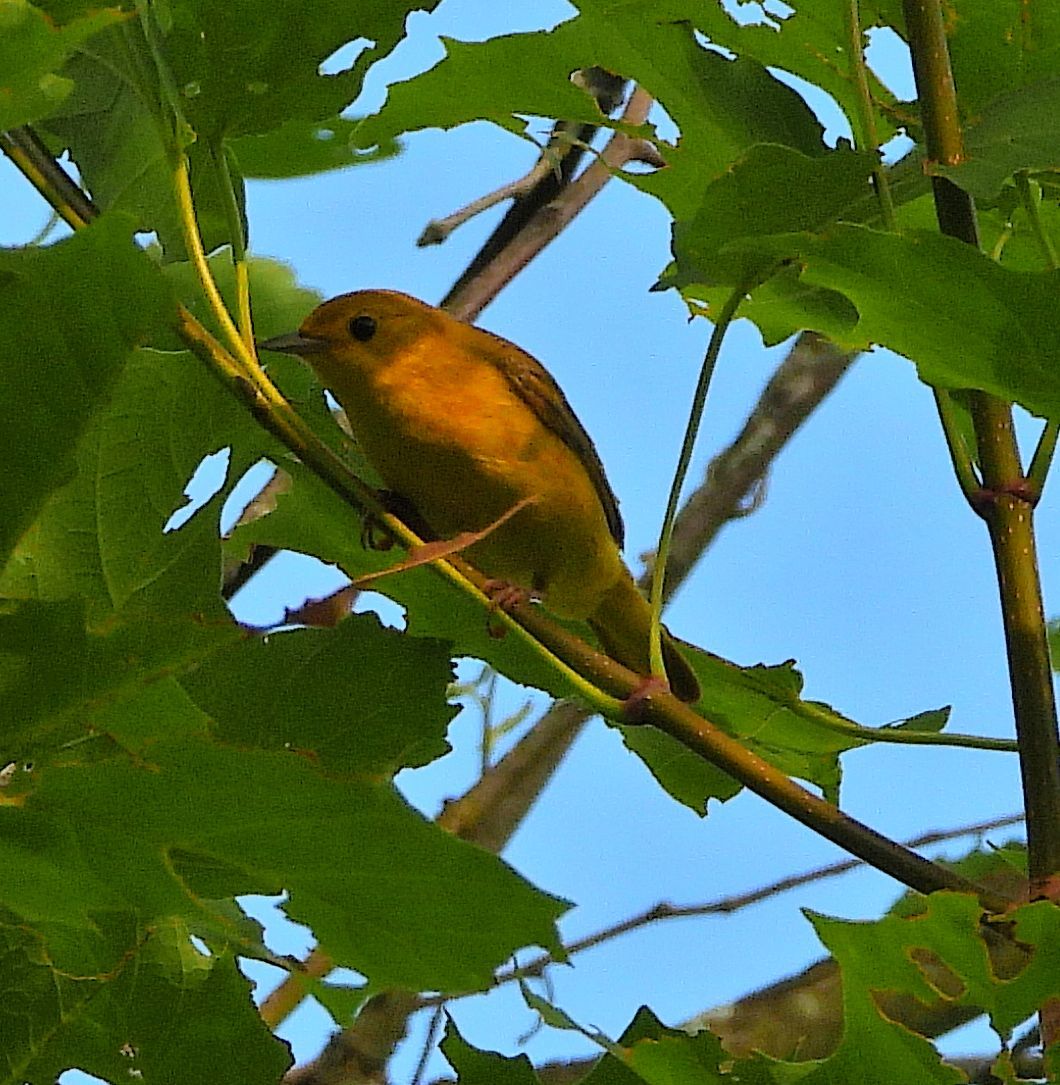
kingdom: Animalia
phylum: Chordata
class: Aves
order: Passeriformes
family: Parulidae
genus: Setophaga
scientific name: Setophaga petechia
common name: Yellow warbler
